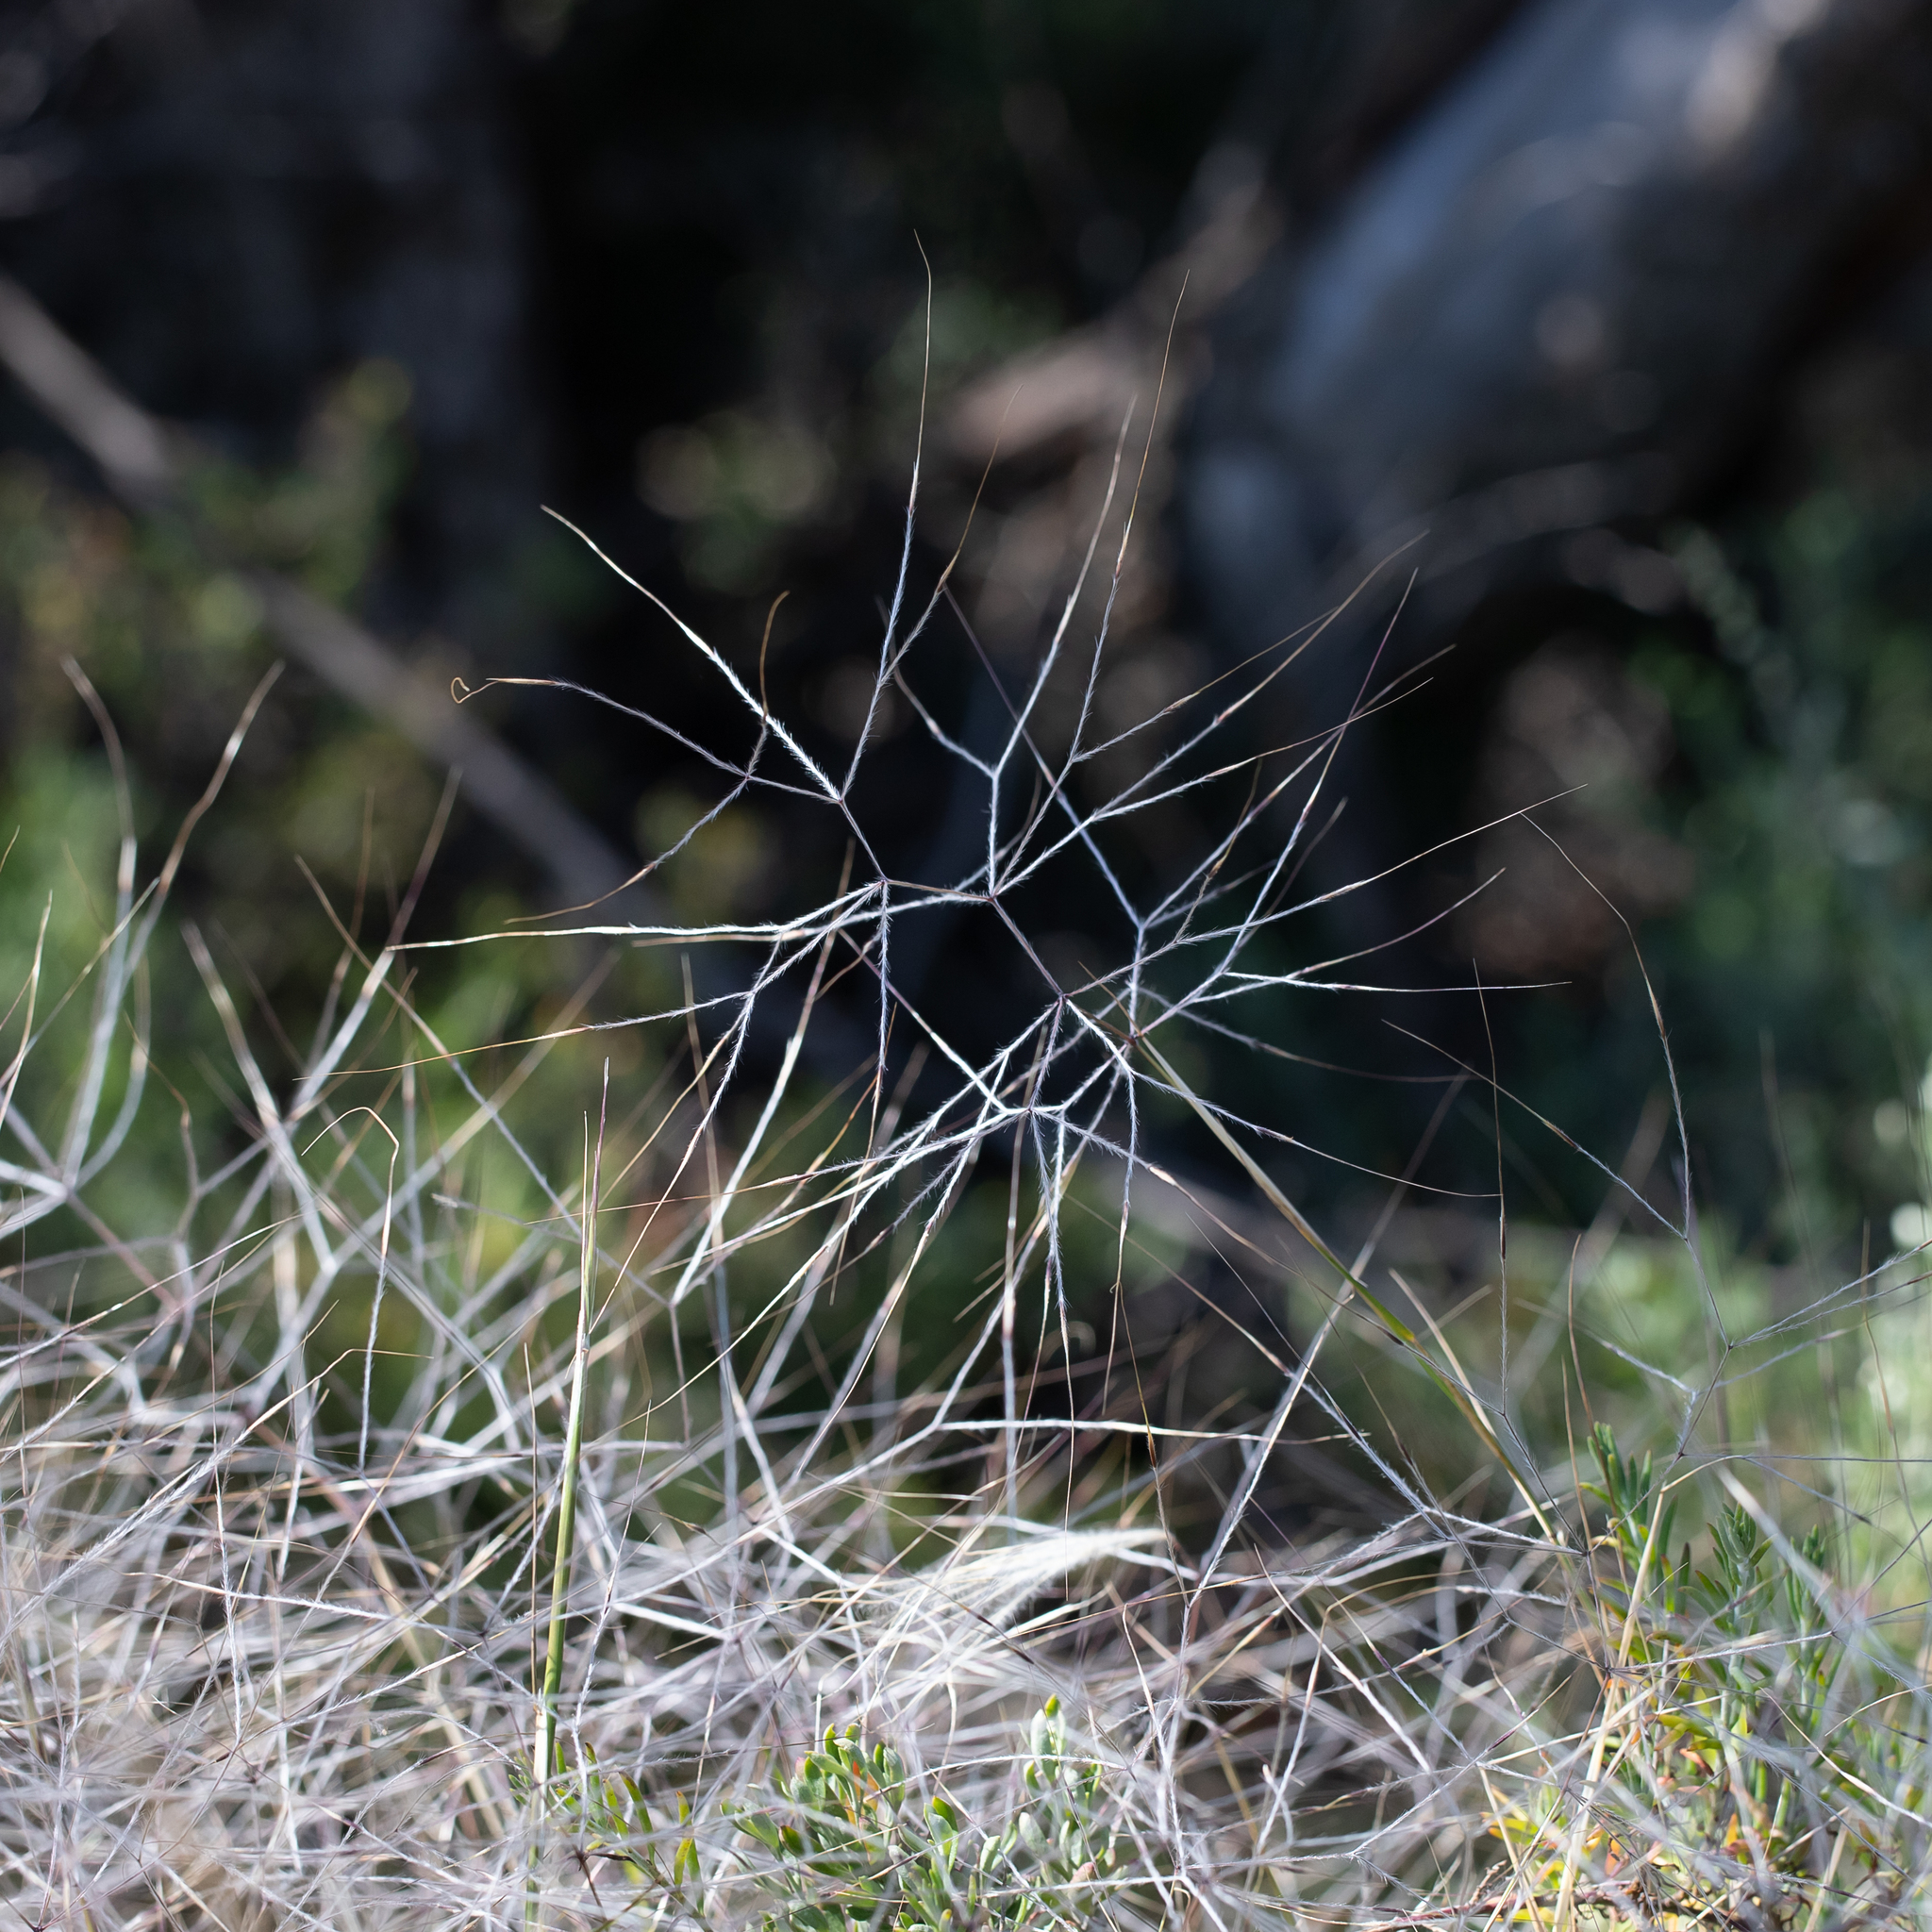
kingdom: Plantae
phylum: Tracheophyta
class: Liliopsida
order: Poales
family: Poaceae
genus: Austrostipa
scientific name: Austrostipa elegantissima
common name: Feather spear grass
